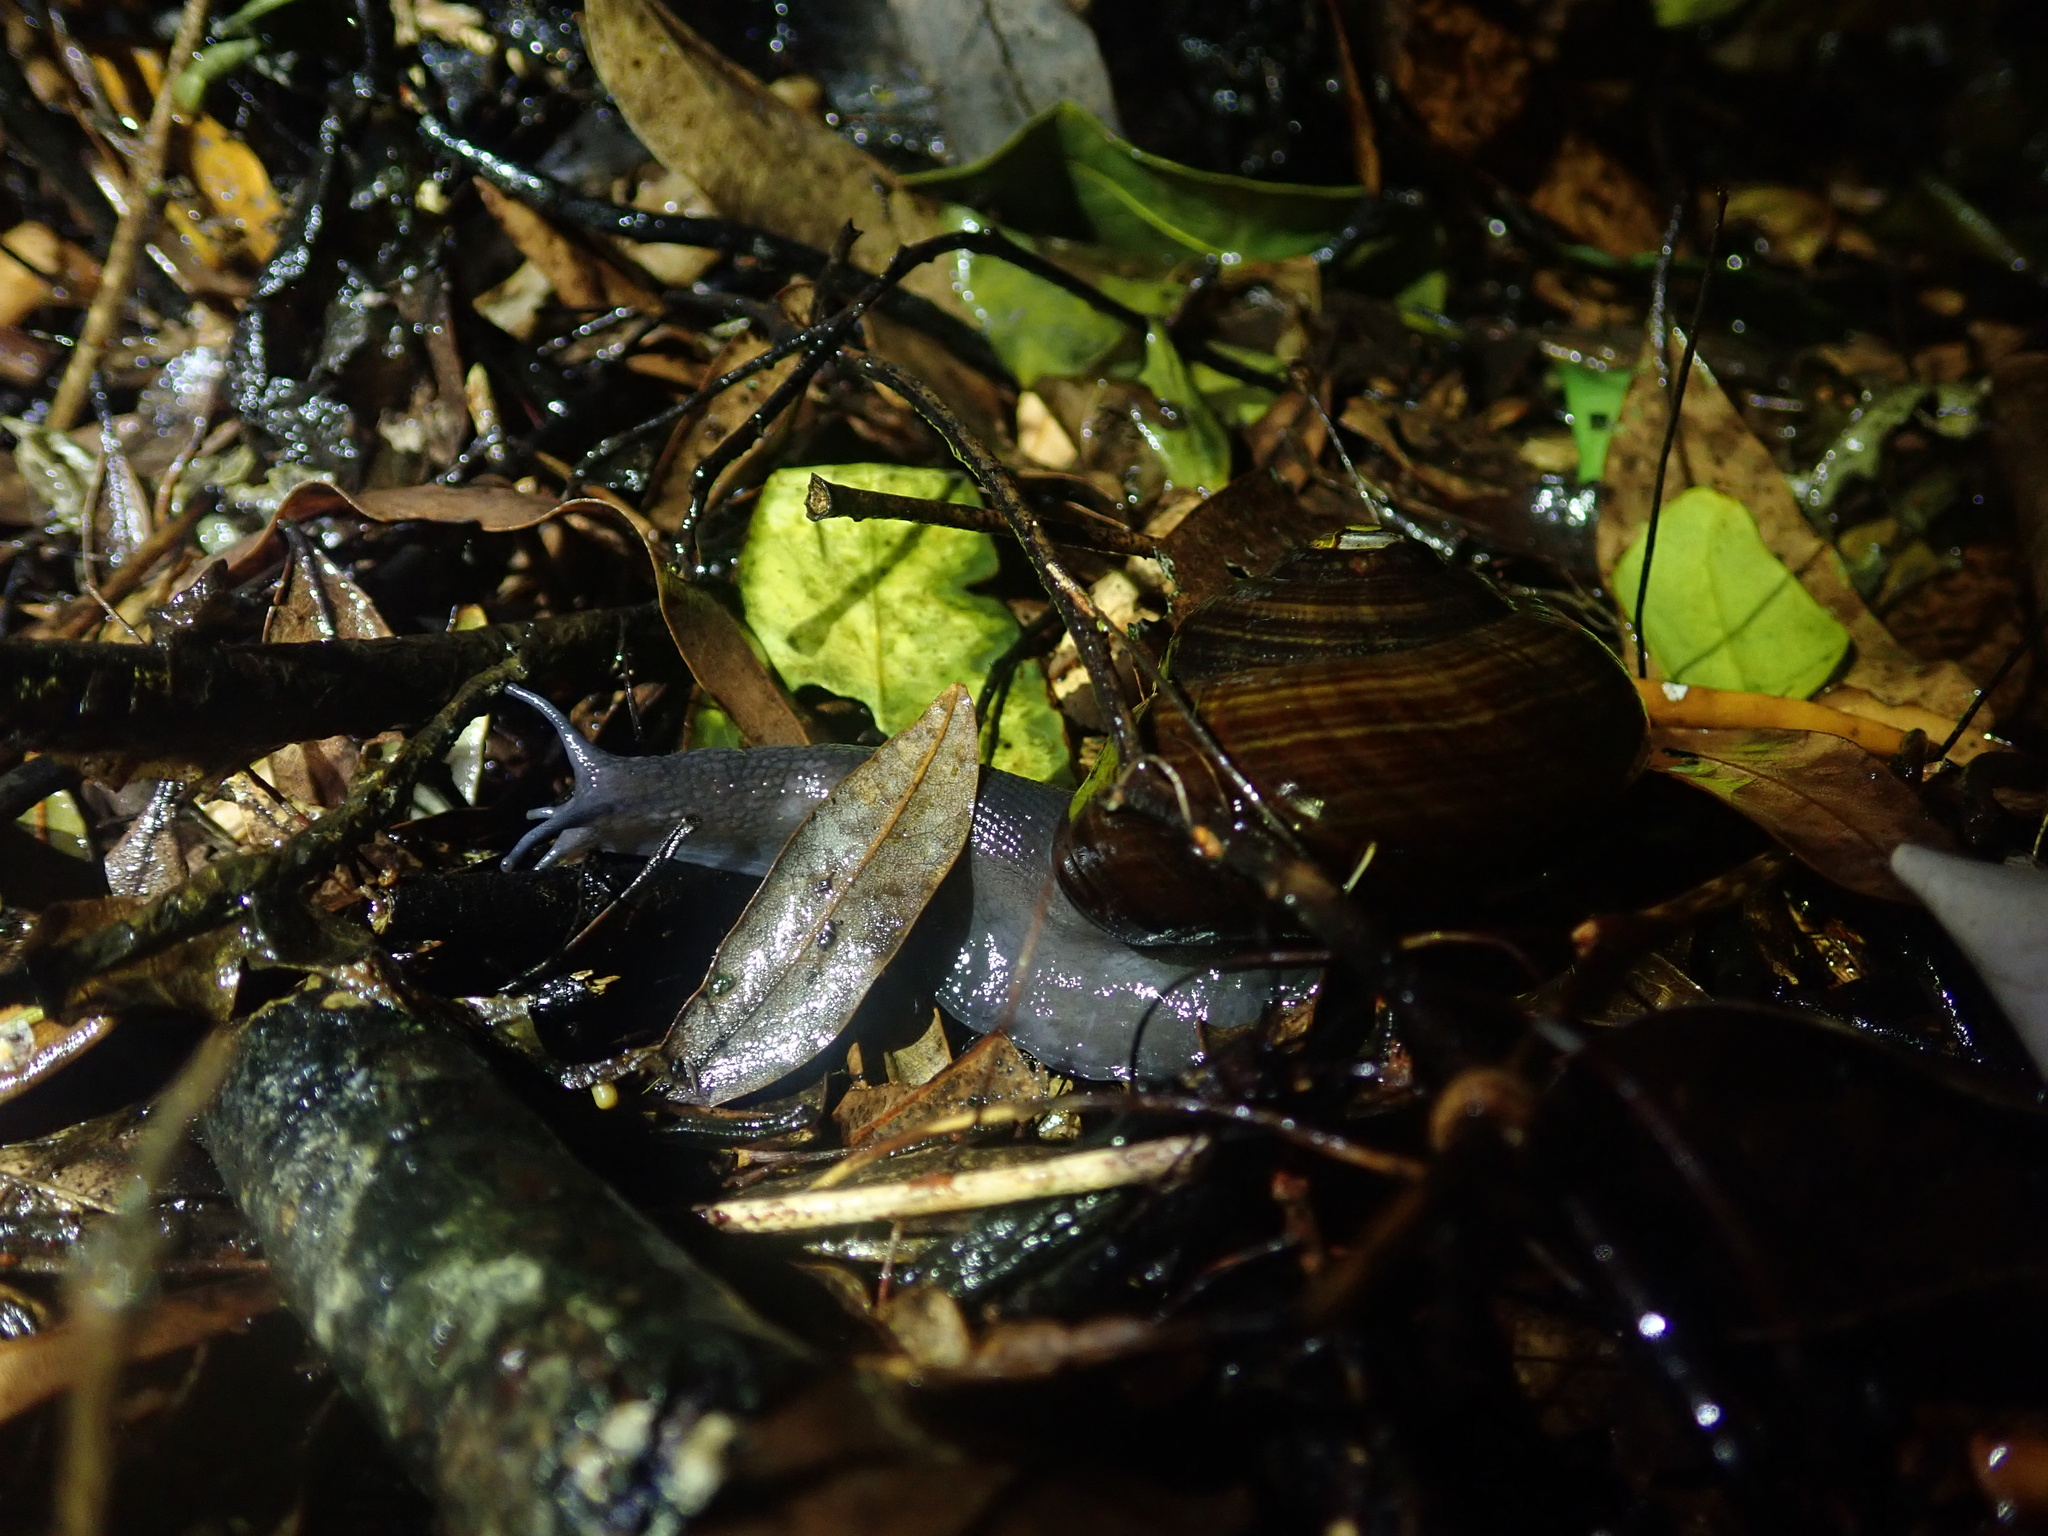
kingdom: Animalia
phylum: Mollusca
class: Gastropoda
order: Stylommatophora
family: Rhytididae
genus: Powelliphanta
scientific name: Powelliphanta traversi
